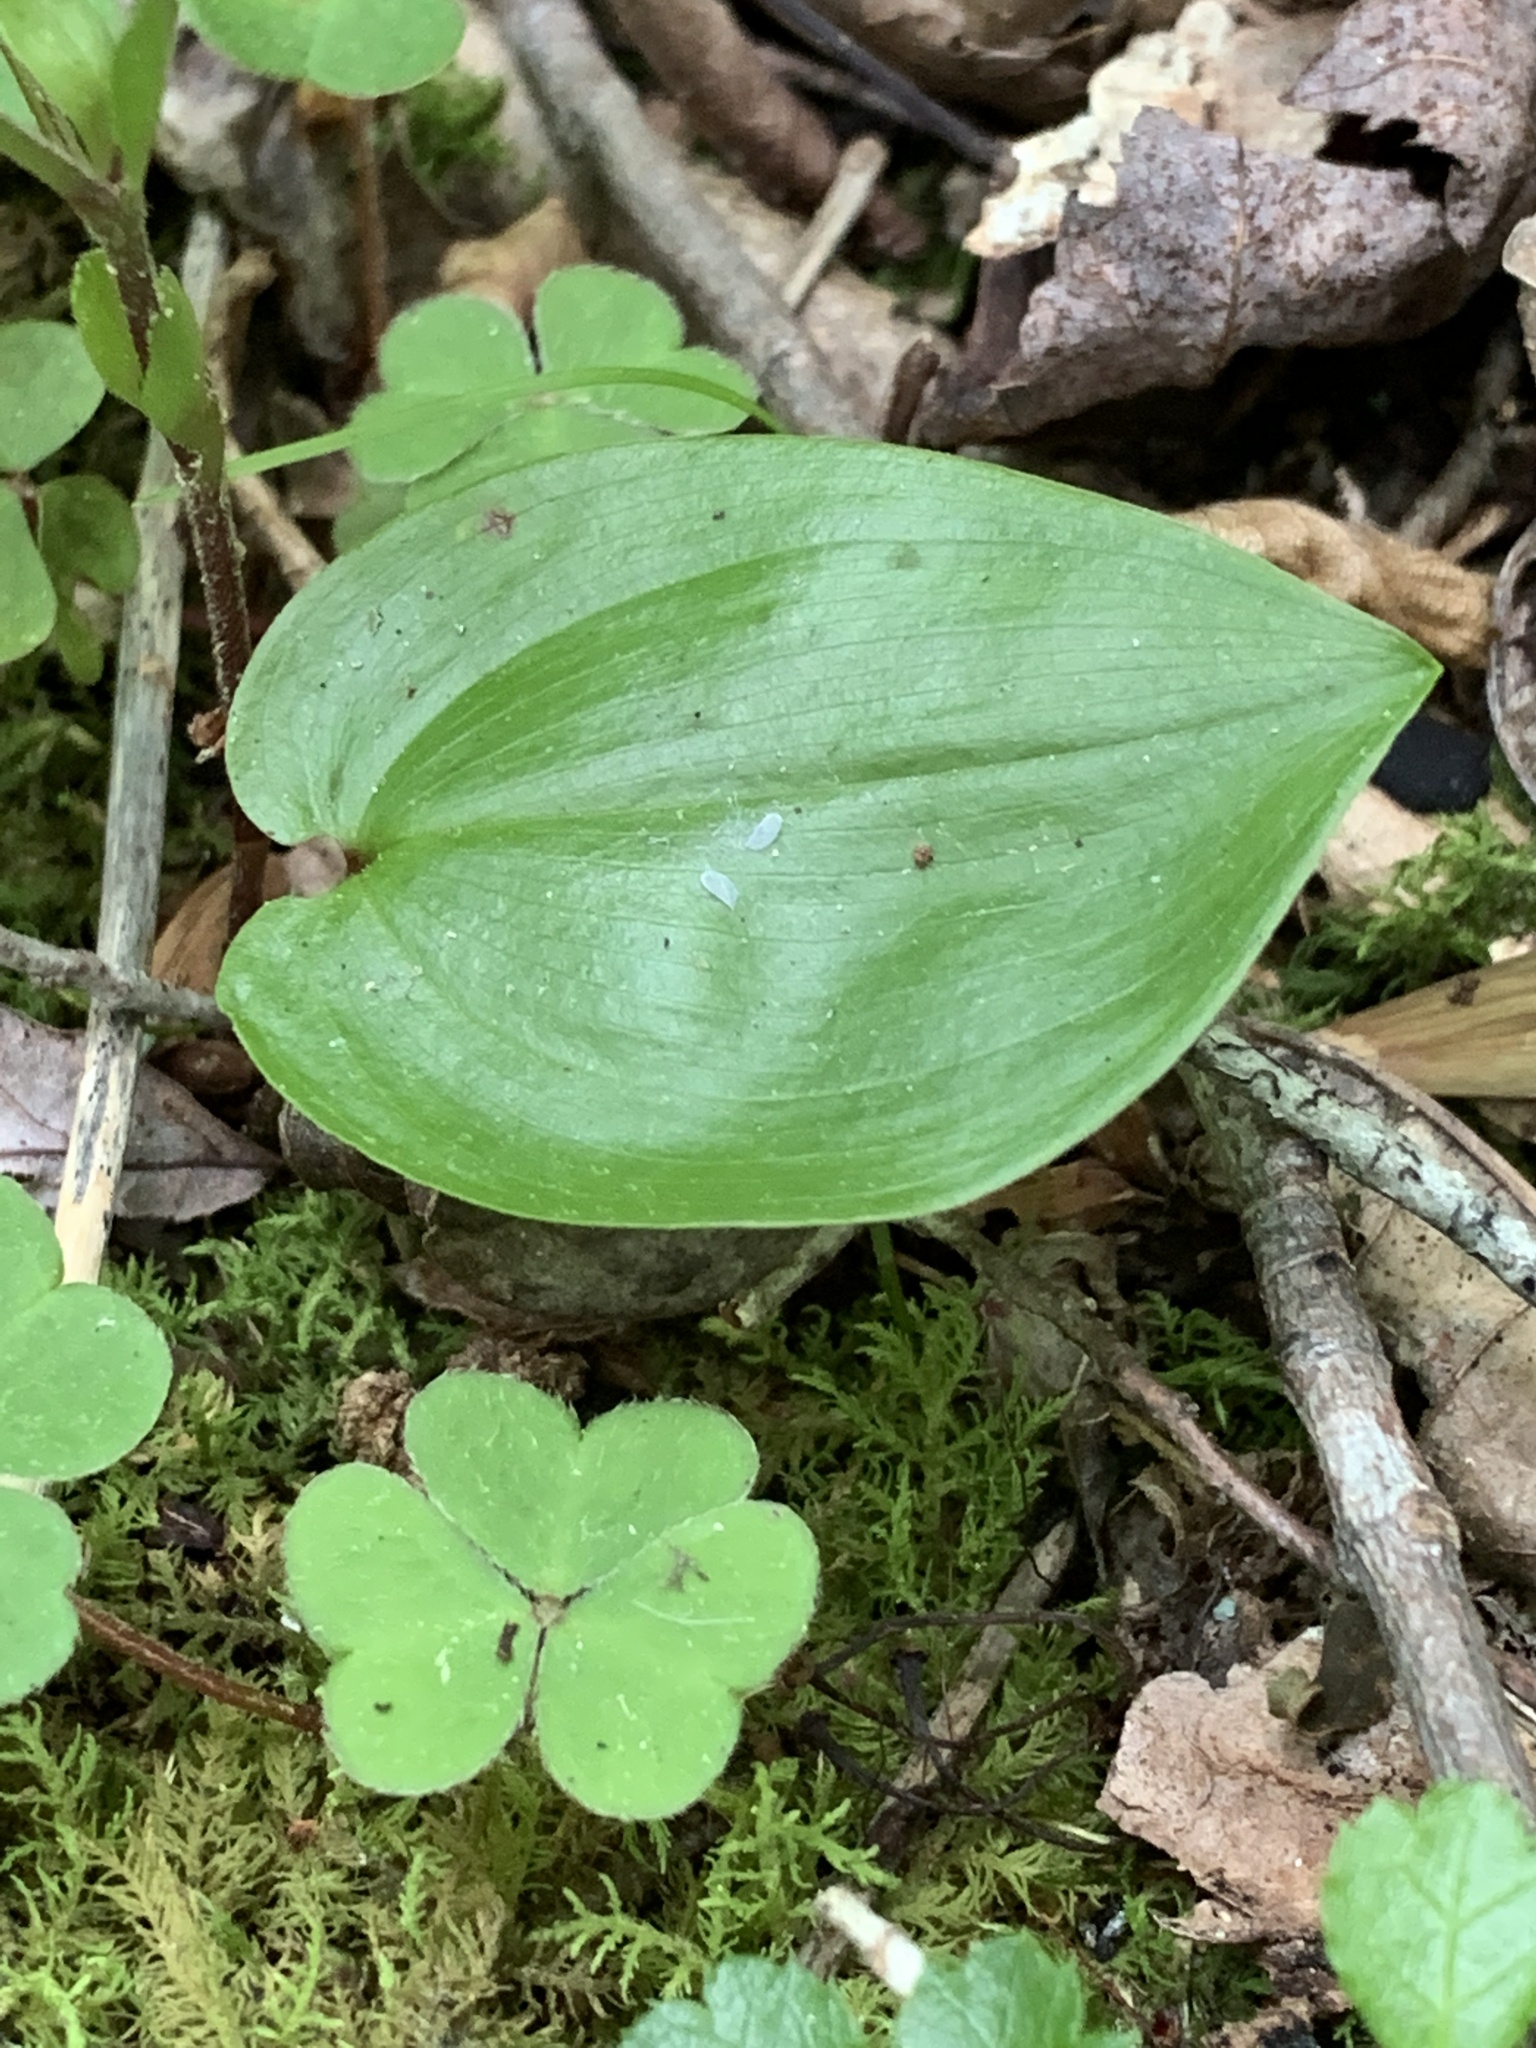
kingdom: Plantae
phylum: Tracheophyta
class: Liliopsida
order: Asparagales
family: Asparagaceae
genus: Maianthemum
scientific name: Maianthemum canadense
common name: False lily-of-the-valley
